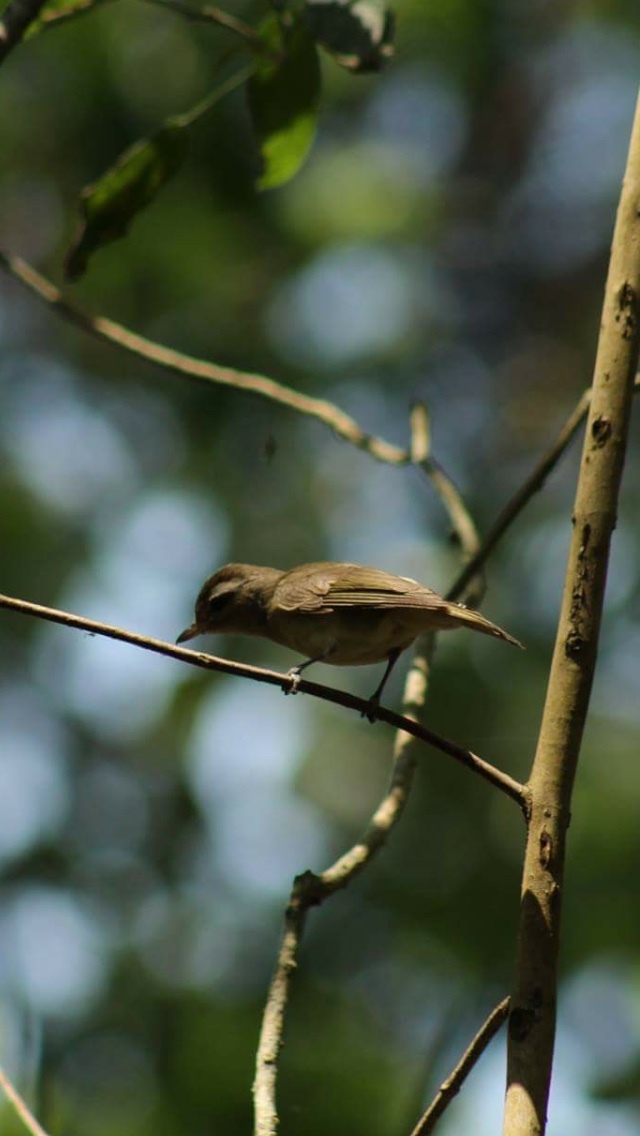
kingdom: Animalia
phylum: Chordata
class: Aves
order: Passeriformes
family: Vireonidae
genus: Vireo
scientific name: Vireo leucophrys
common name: Brown-capped vireo
